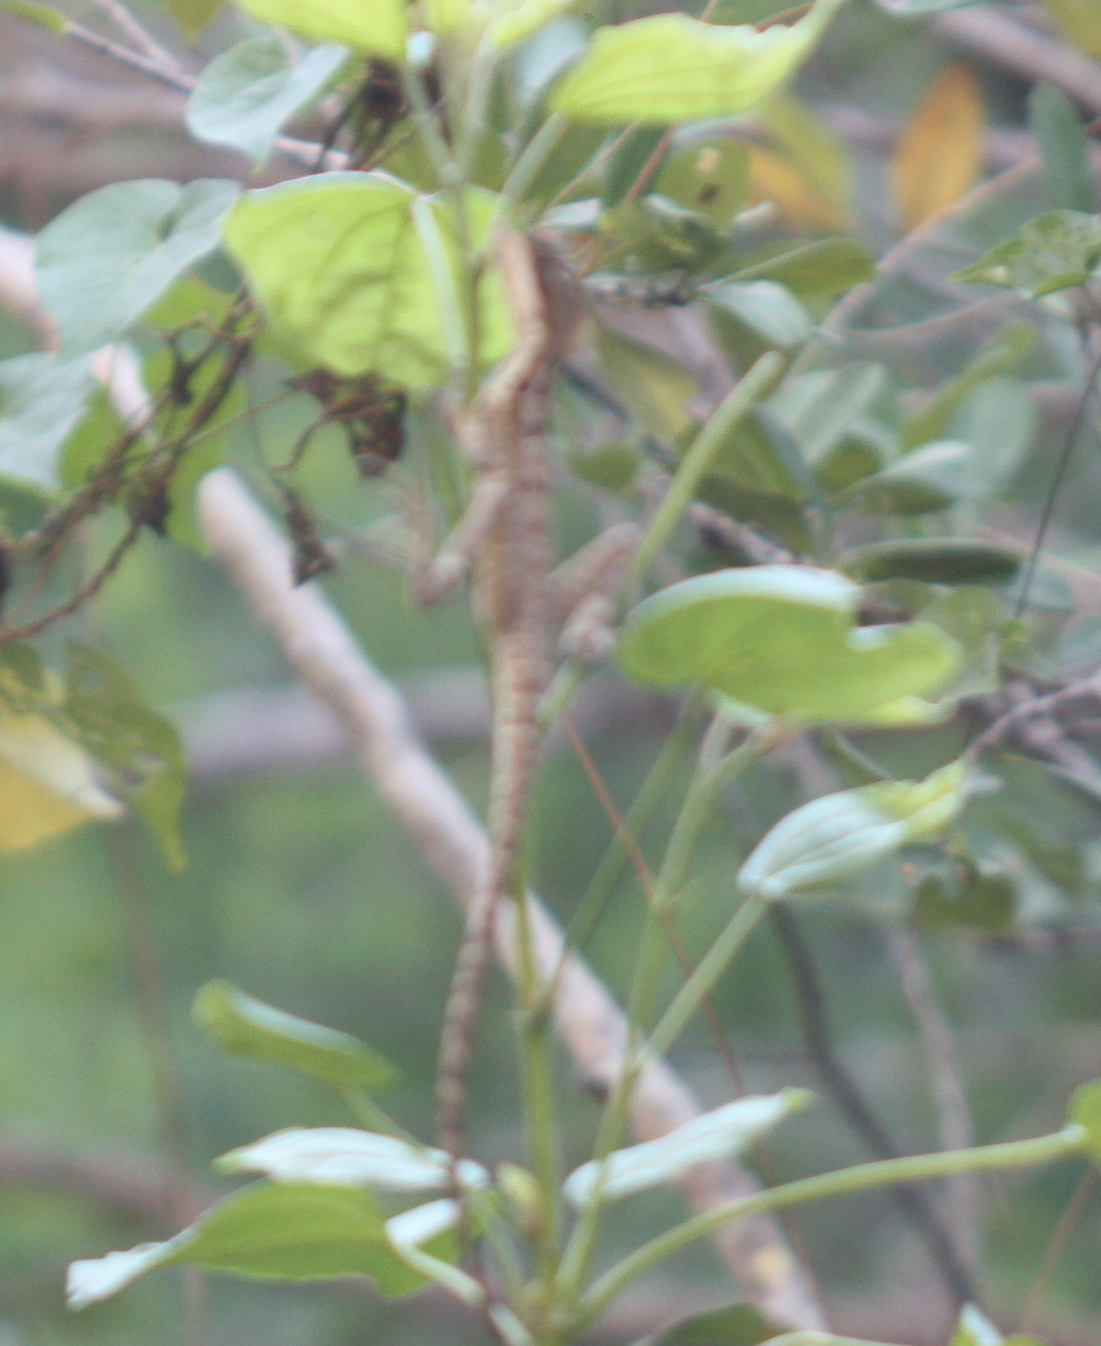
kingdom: Animalia
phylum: Chordata
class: Squamata
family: Corytophanidae
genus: Basiliscus
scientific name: Basiliscus vittatus
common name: Brown basilisk
